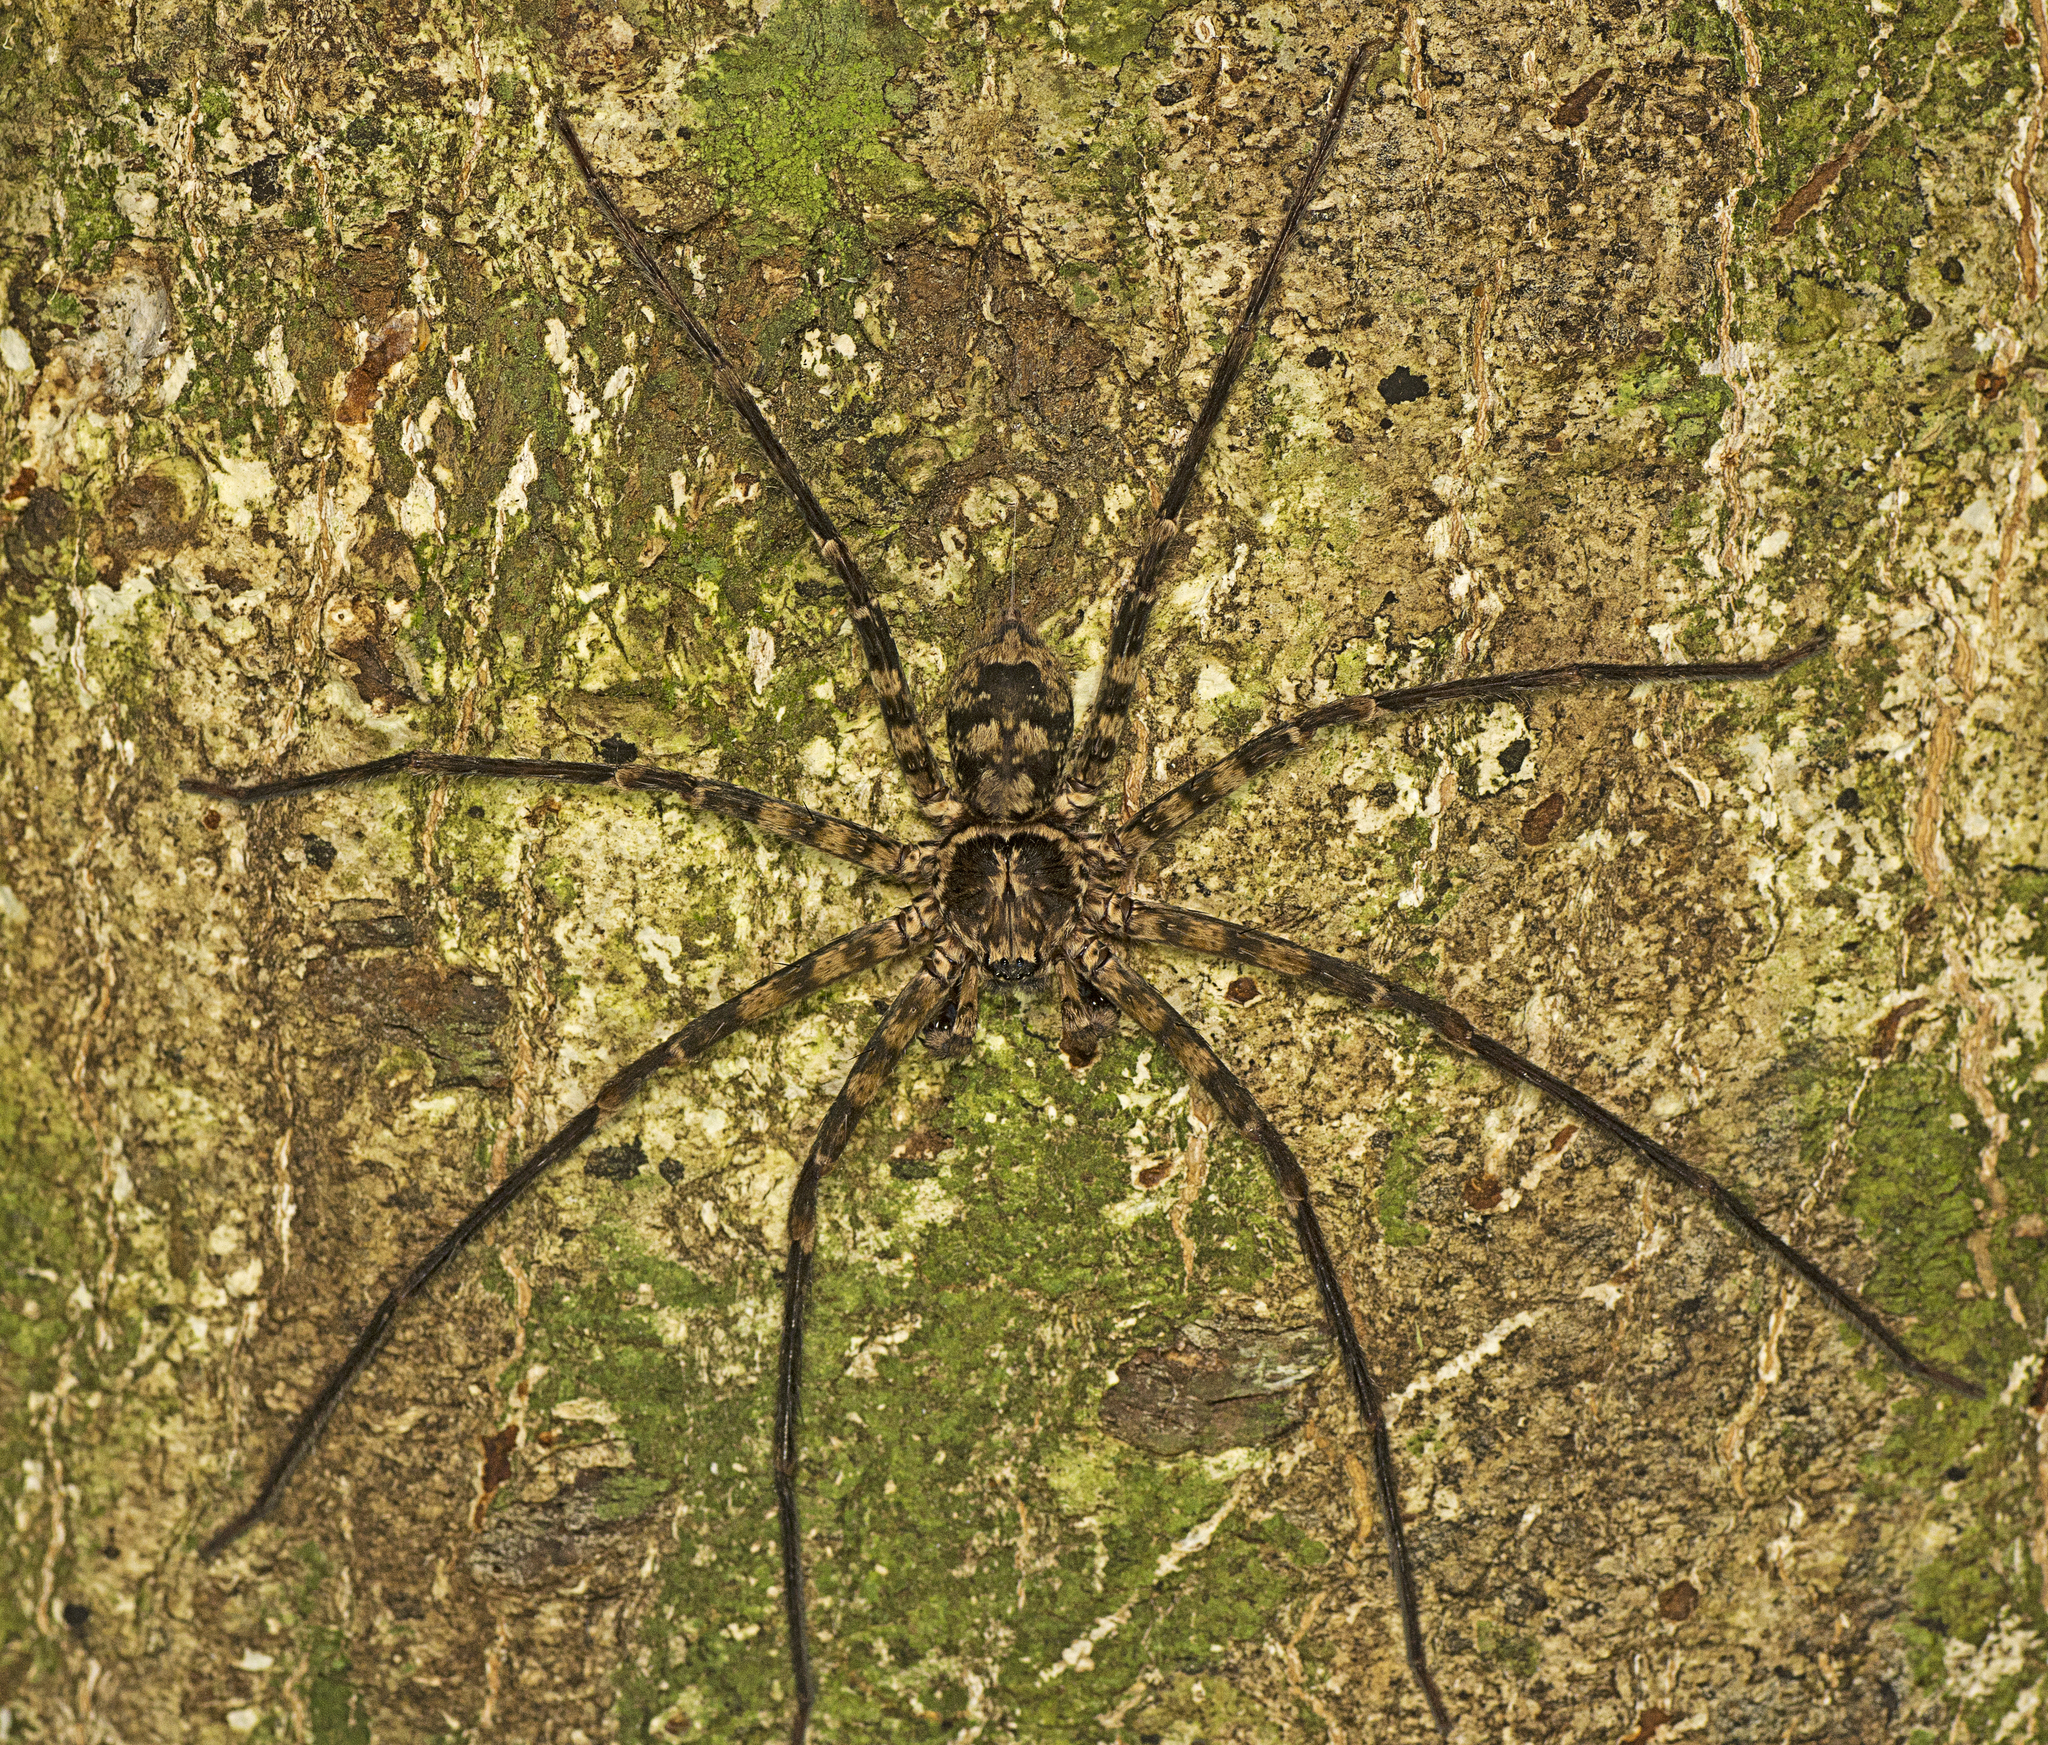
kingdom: Animalia
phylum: Arthropoda
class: Arachnida
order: Araneae
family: Sparassidae
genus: Heteropoda
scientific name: Heteropoda procera
